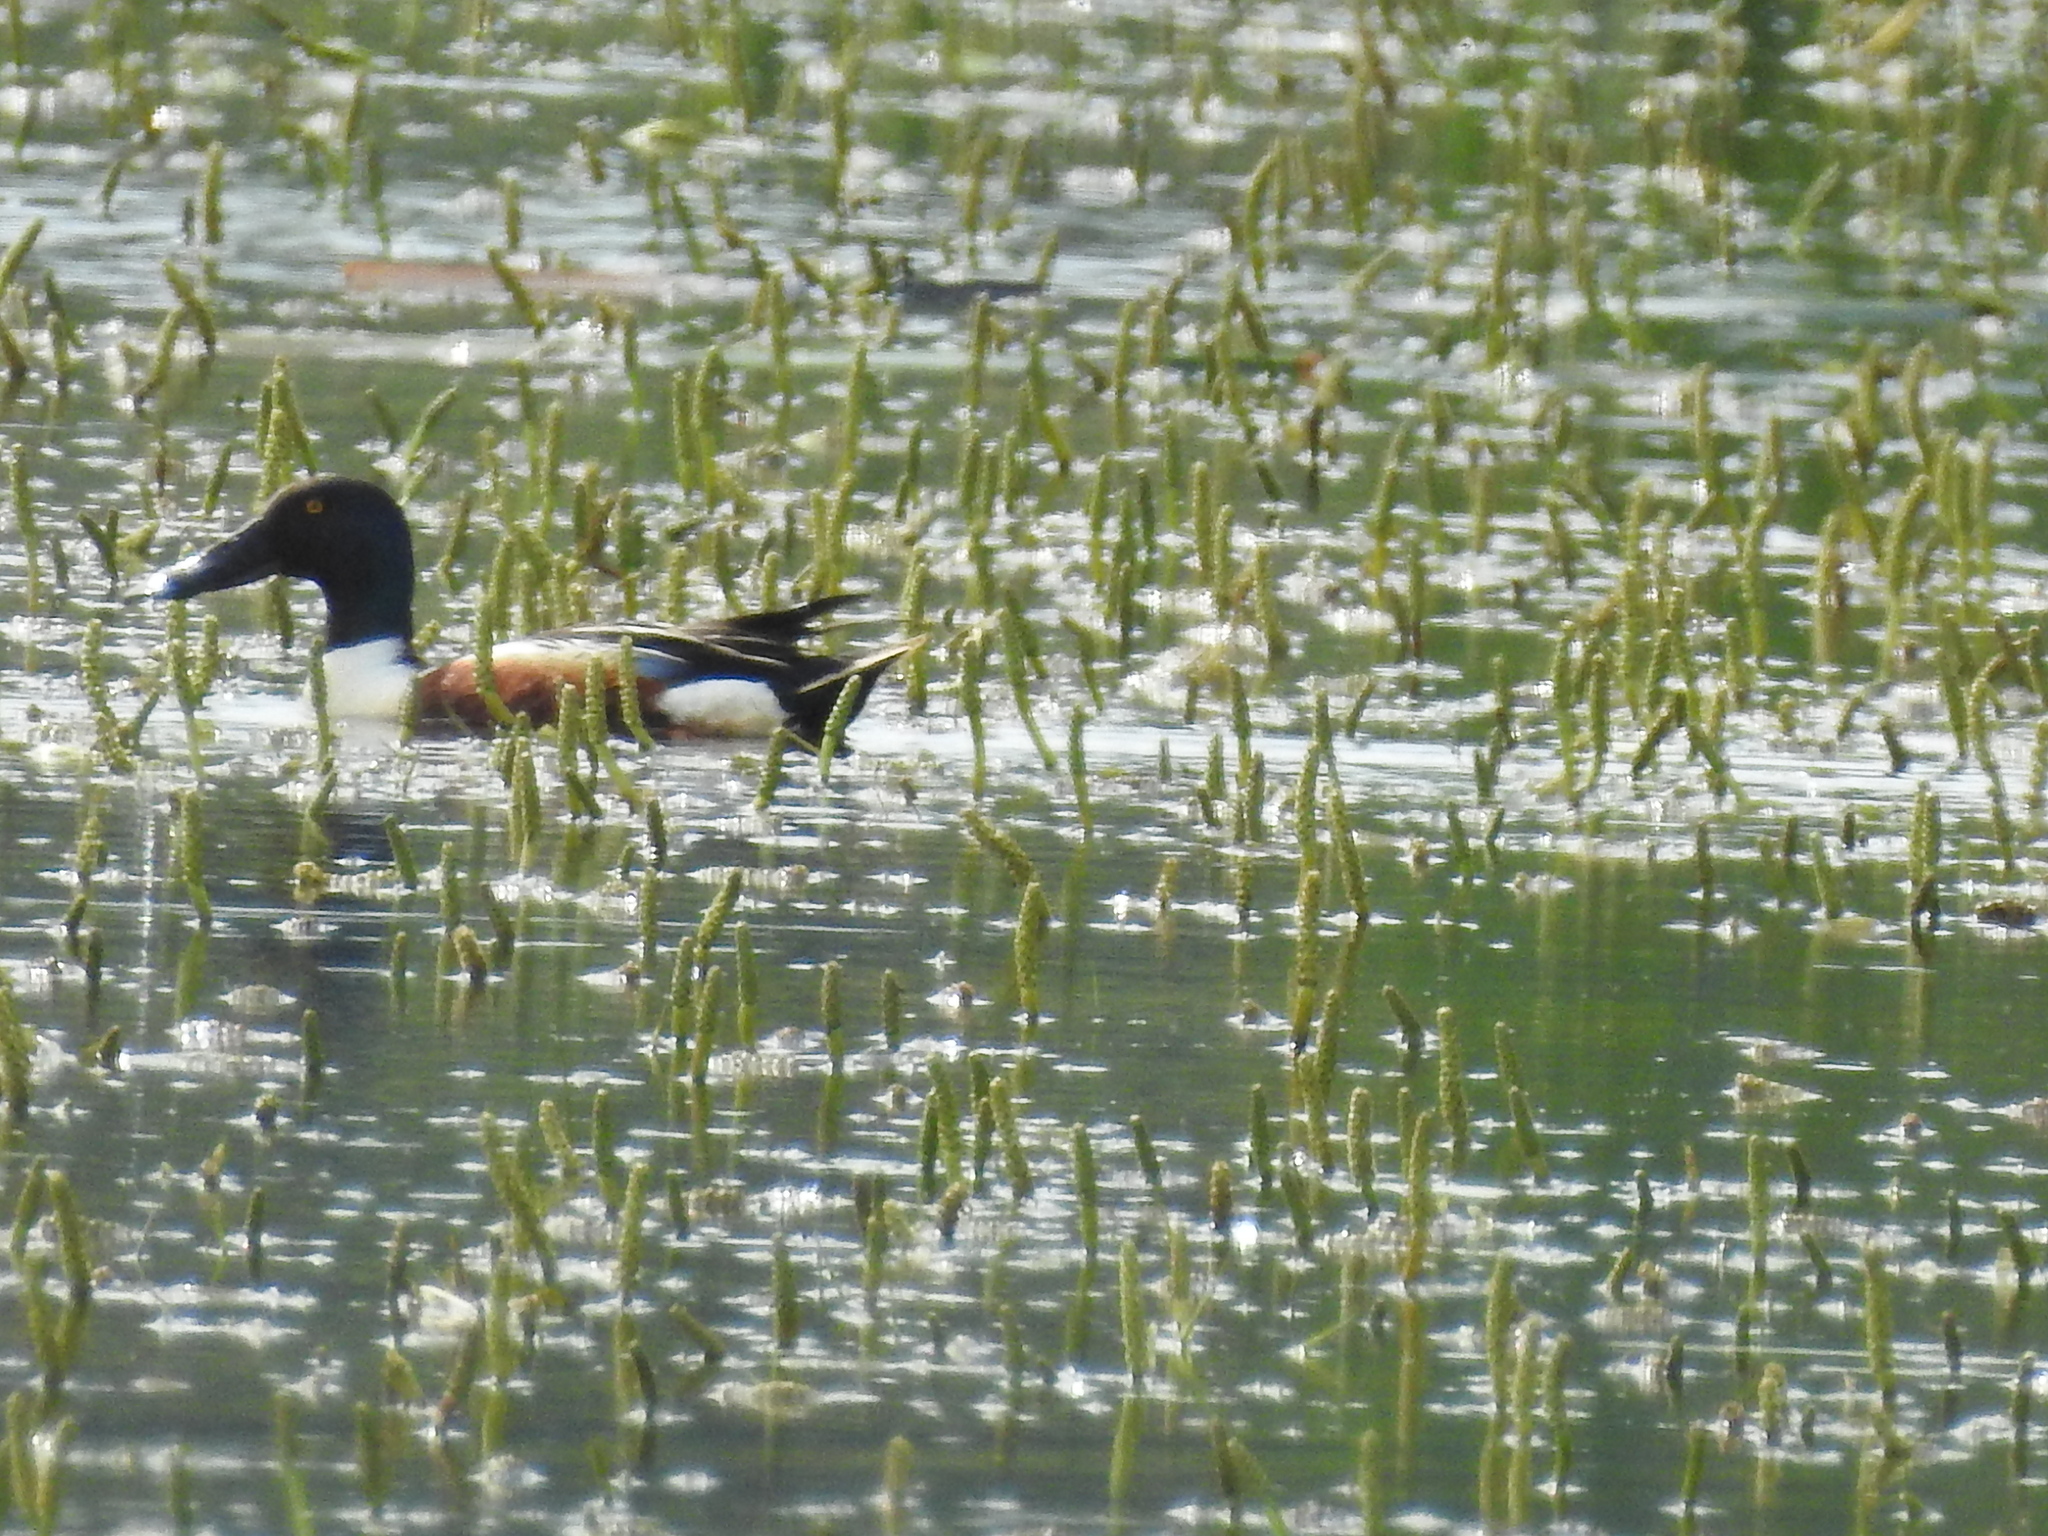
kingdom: Animalia
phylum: Chordata
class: Aves
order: Anseriformes
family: Anatidae
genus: Spatula
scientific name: Spatula clypeata
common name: Northern shoveler
